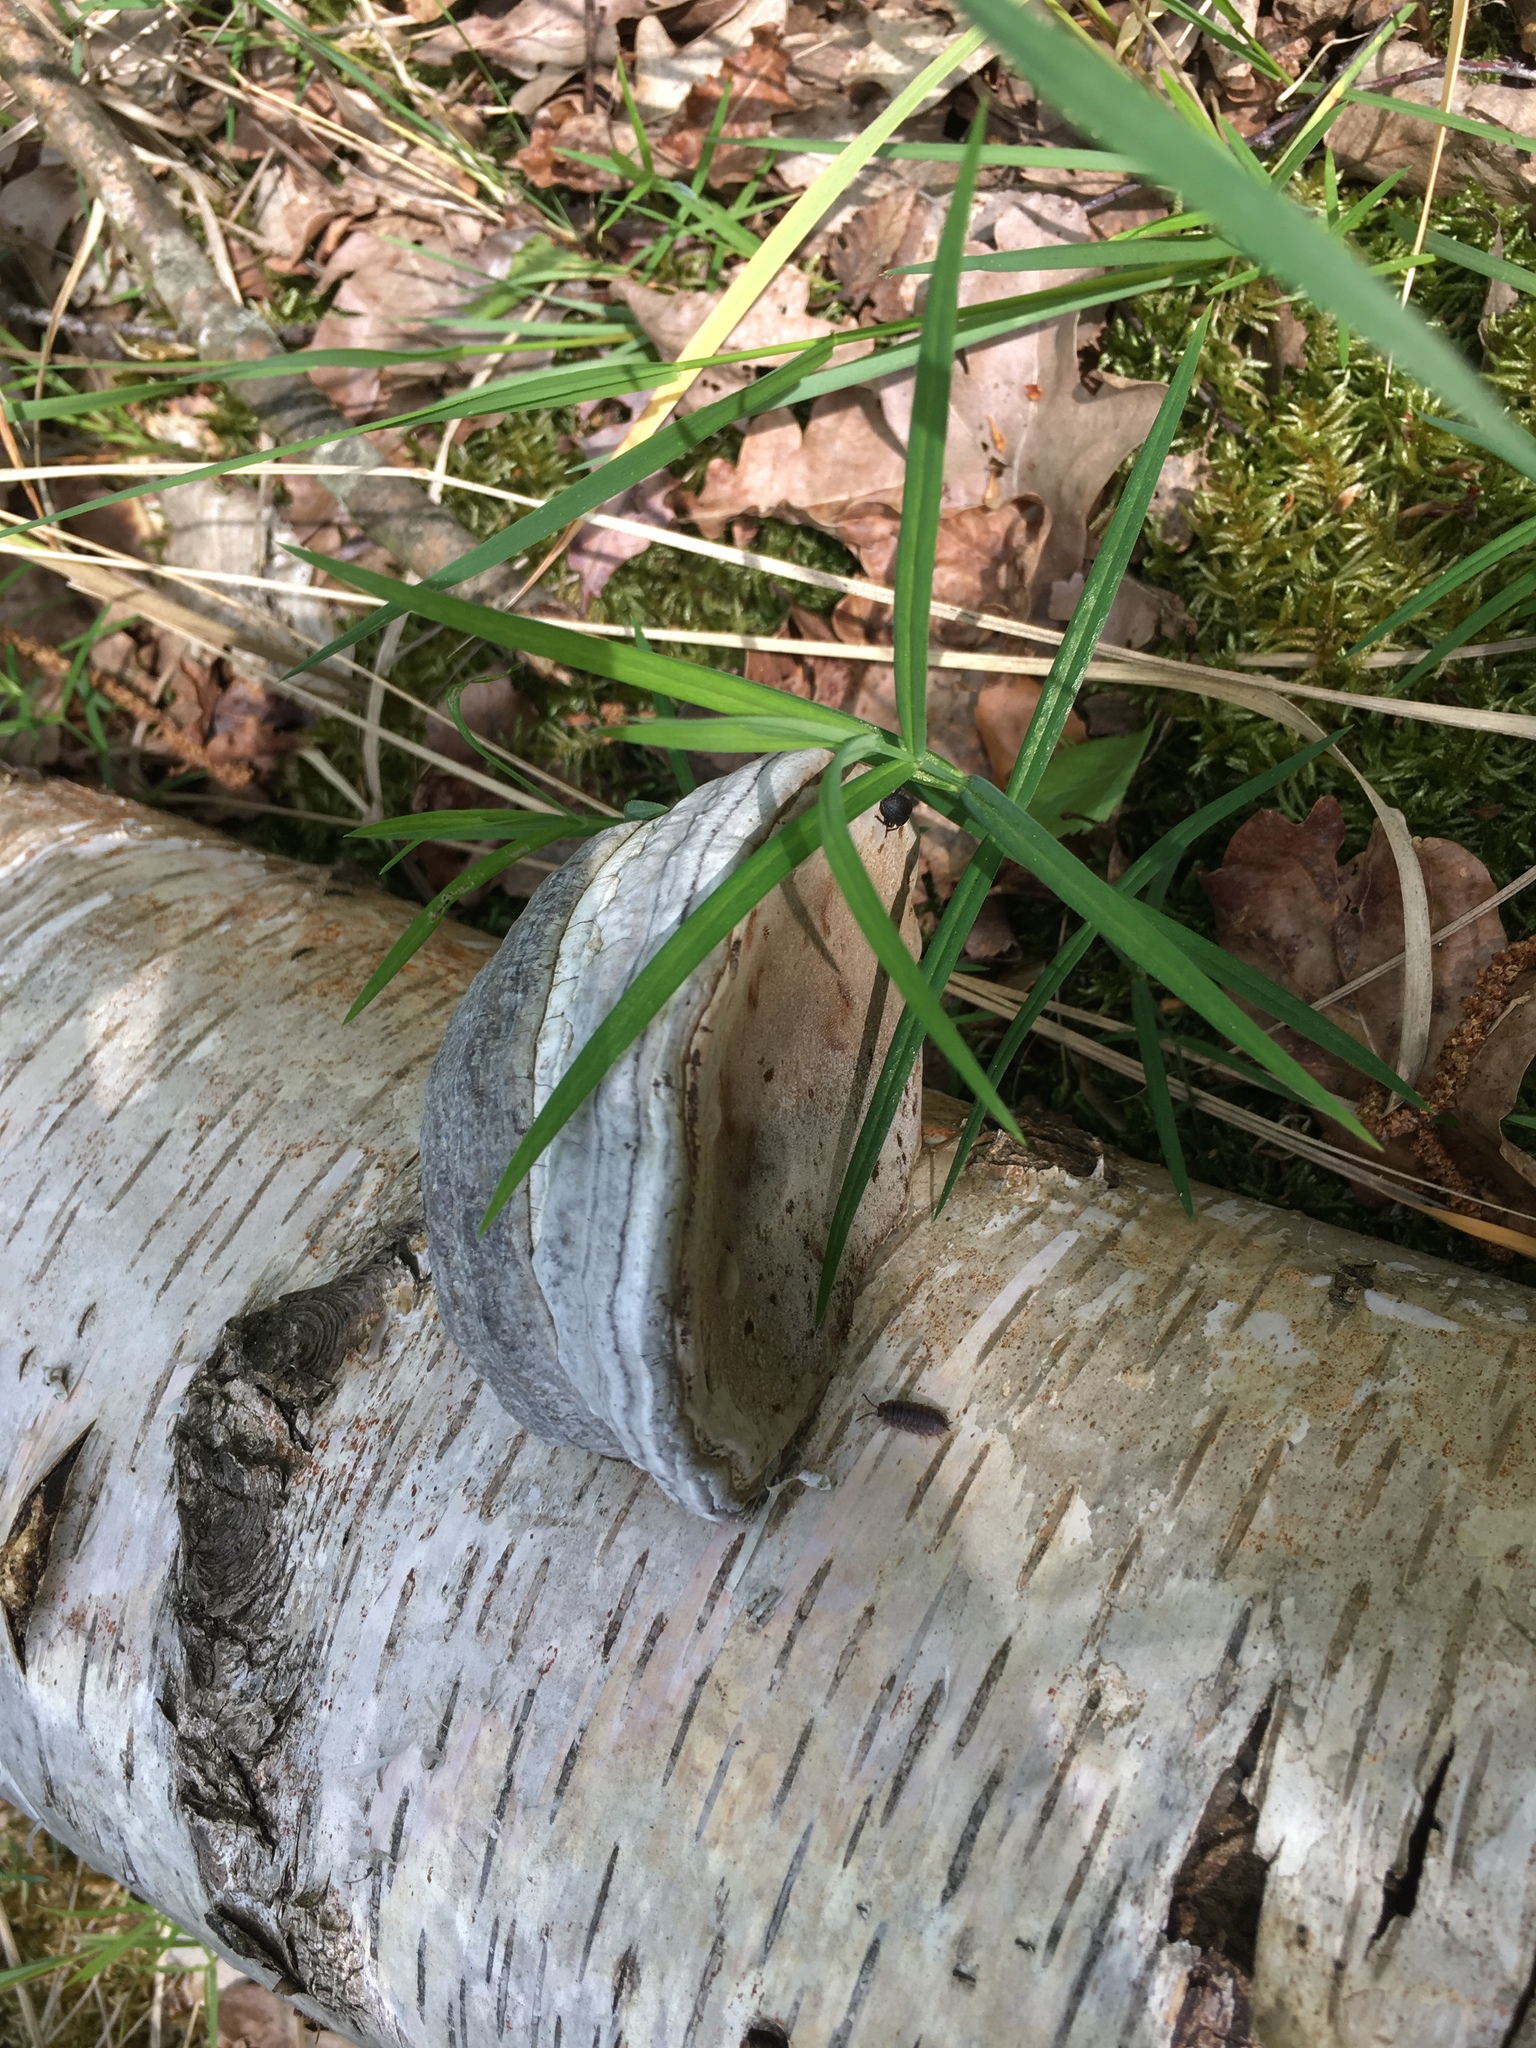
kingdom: Fungi
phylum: Basidiomycota
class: Agaricomycetes
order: Polyporales
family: Polyporaceae
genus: Fomes
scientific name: Fomes fomentarius
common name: Hoof fungus
